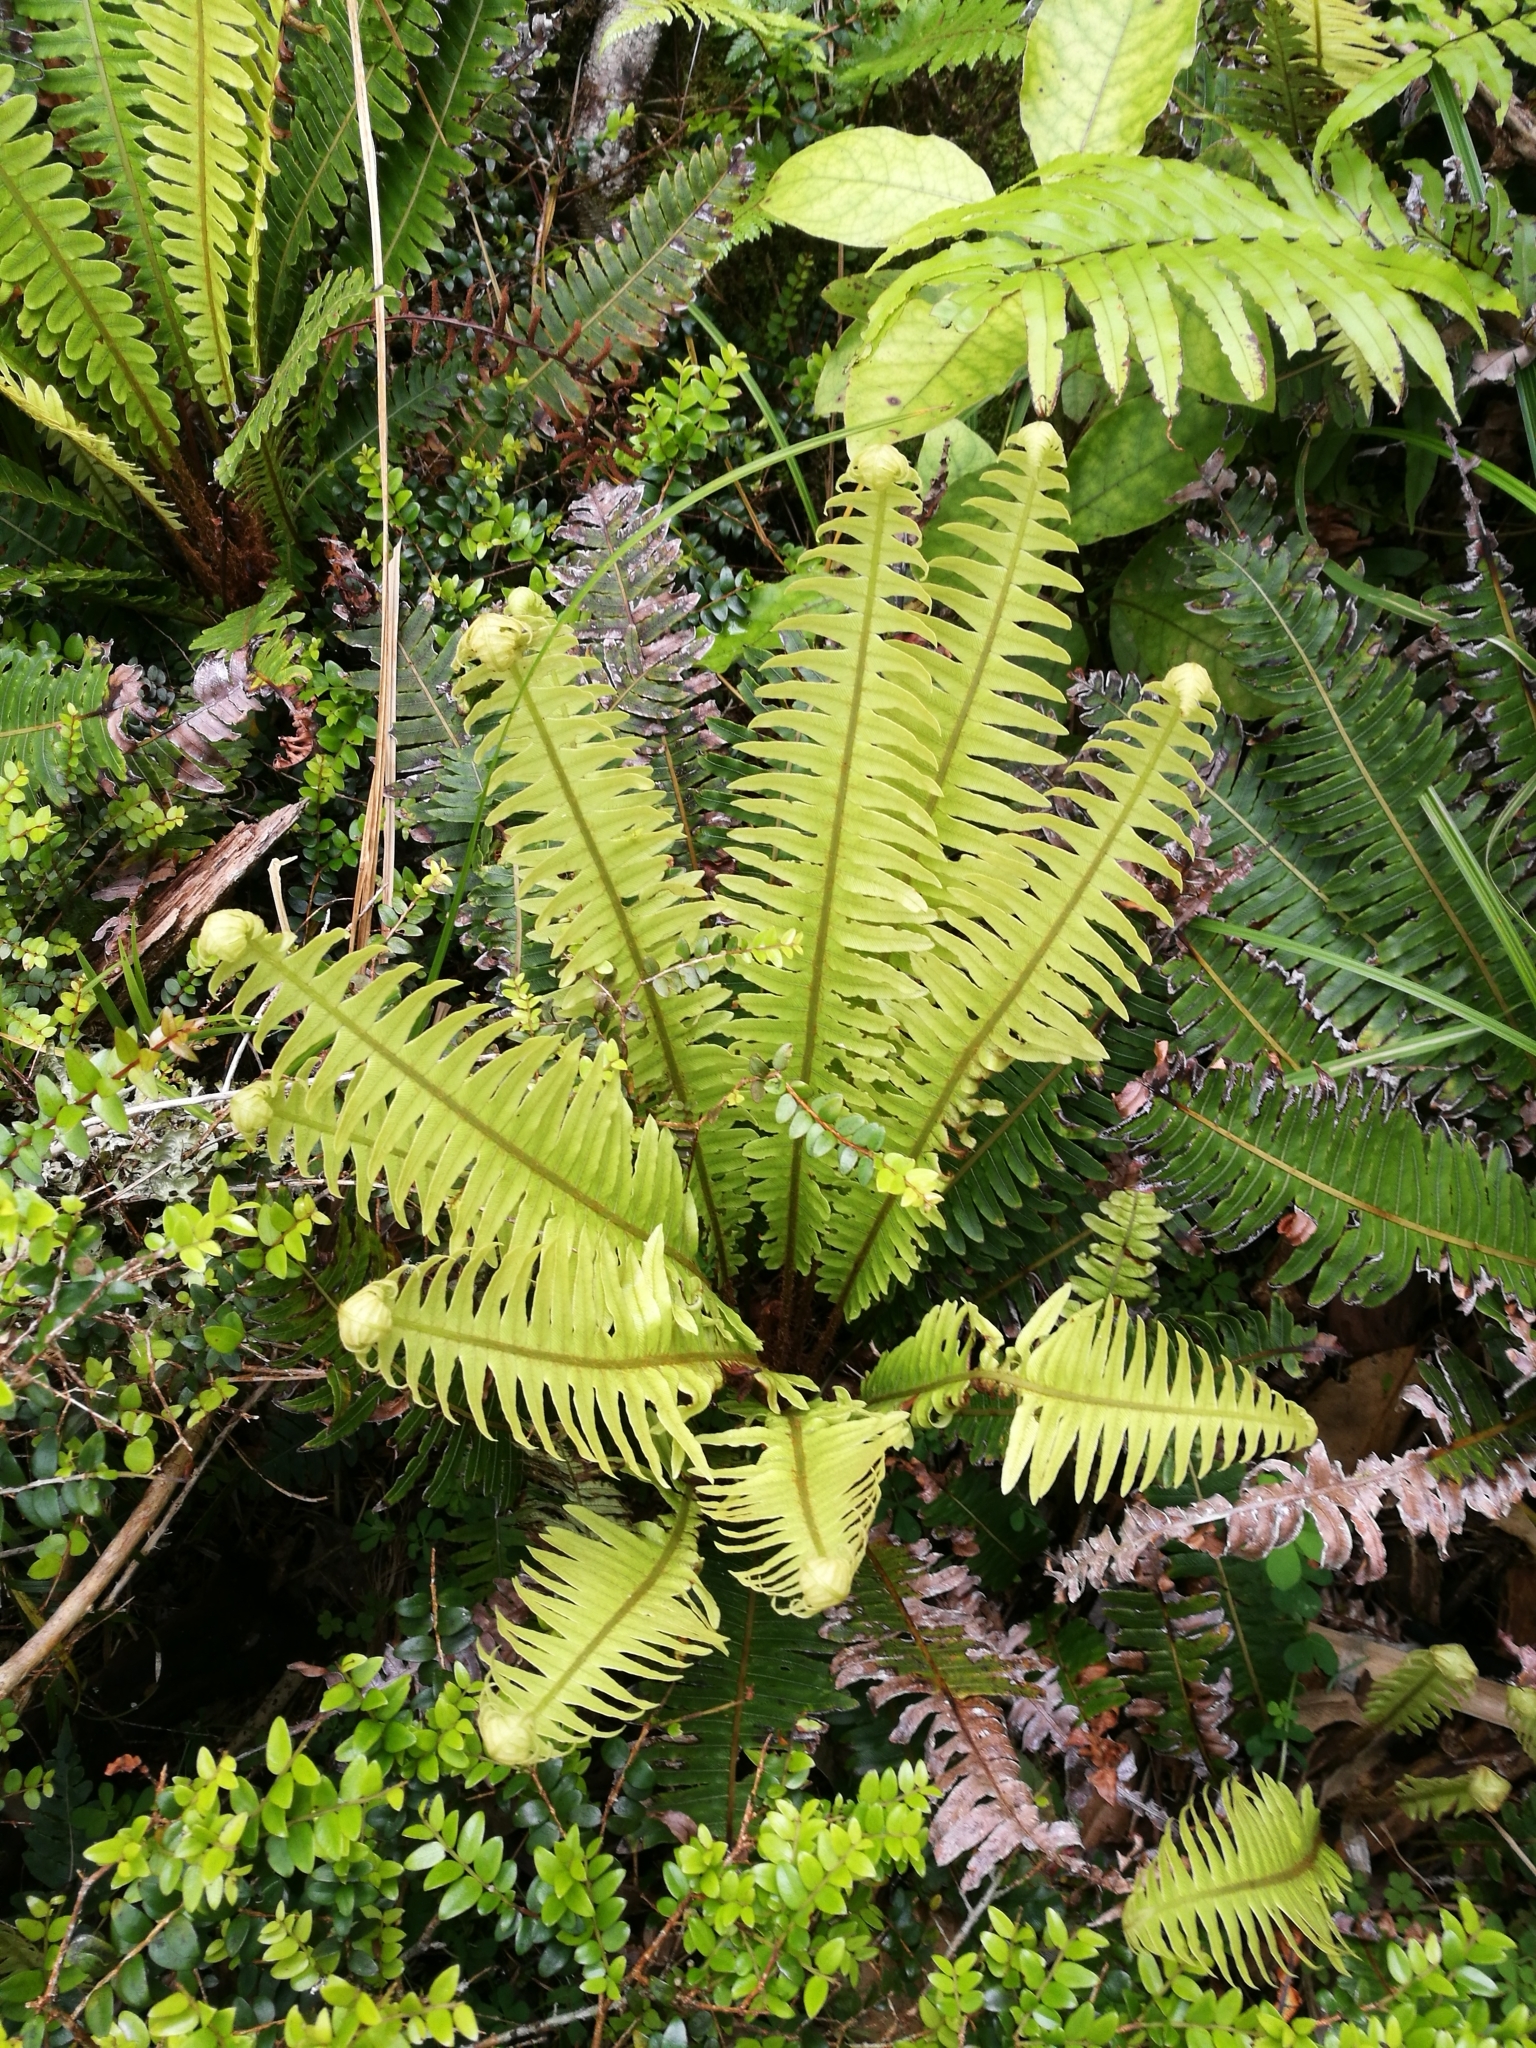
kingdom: Plantae
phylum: Tracheophyta
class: Polypodiopsida
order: Polypodiales
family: Blechnaceae
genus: Lomaria
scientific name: Lomaria discolor
